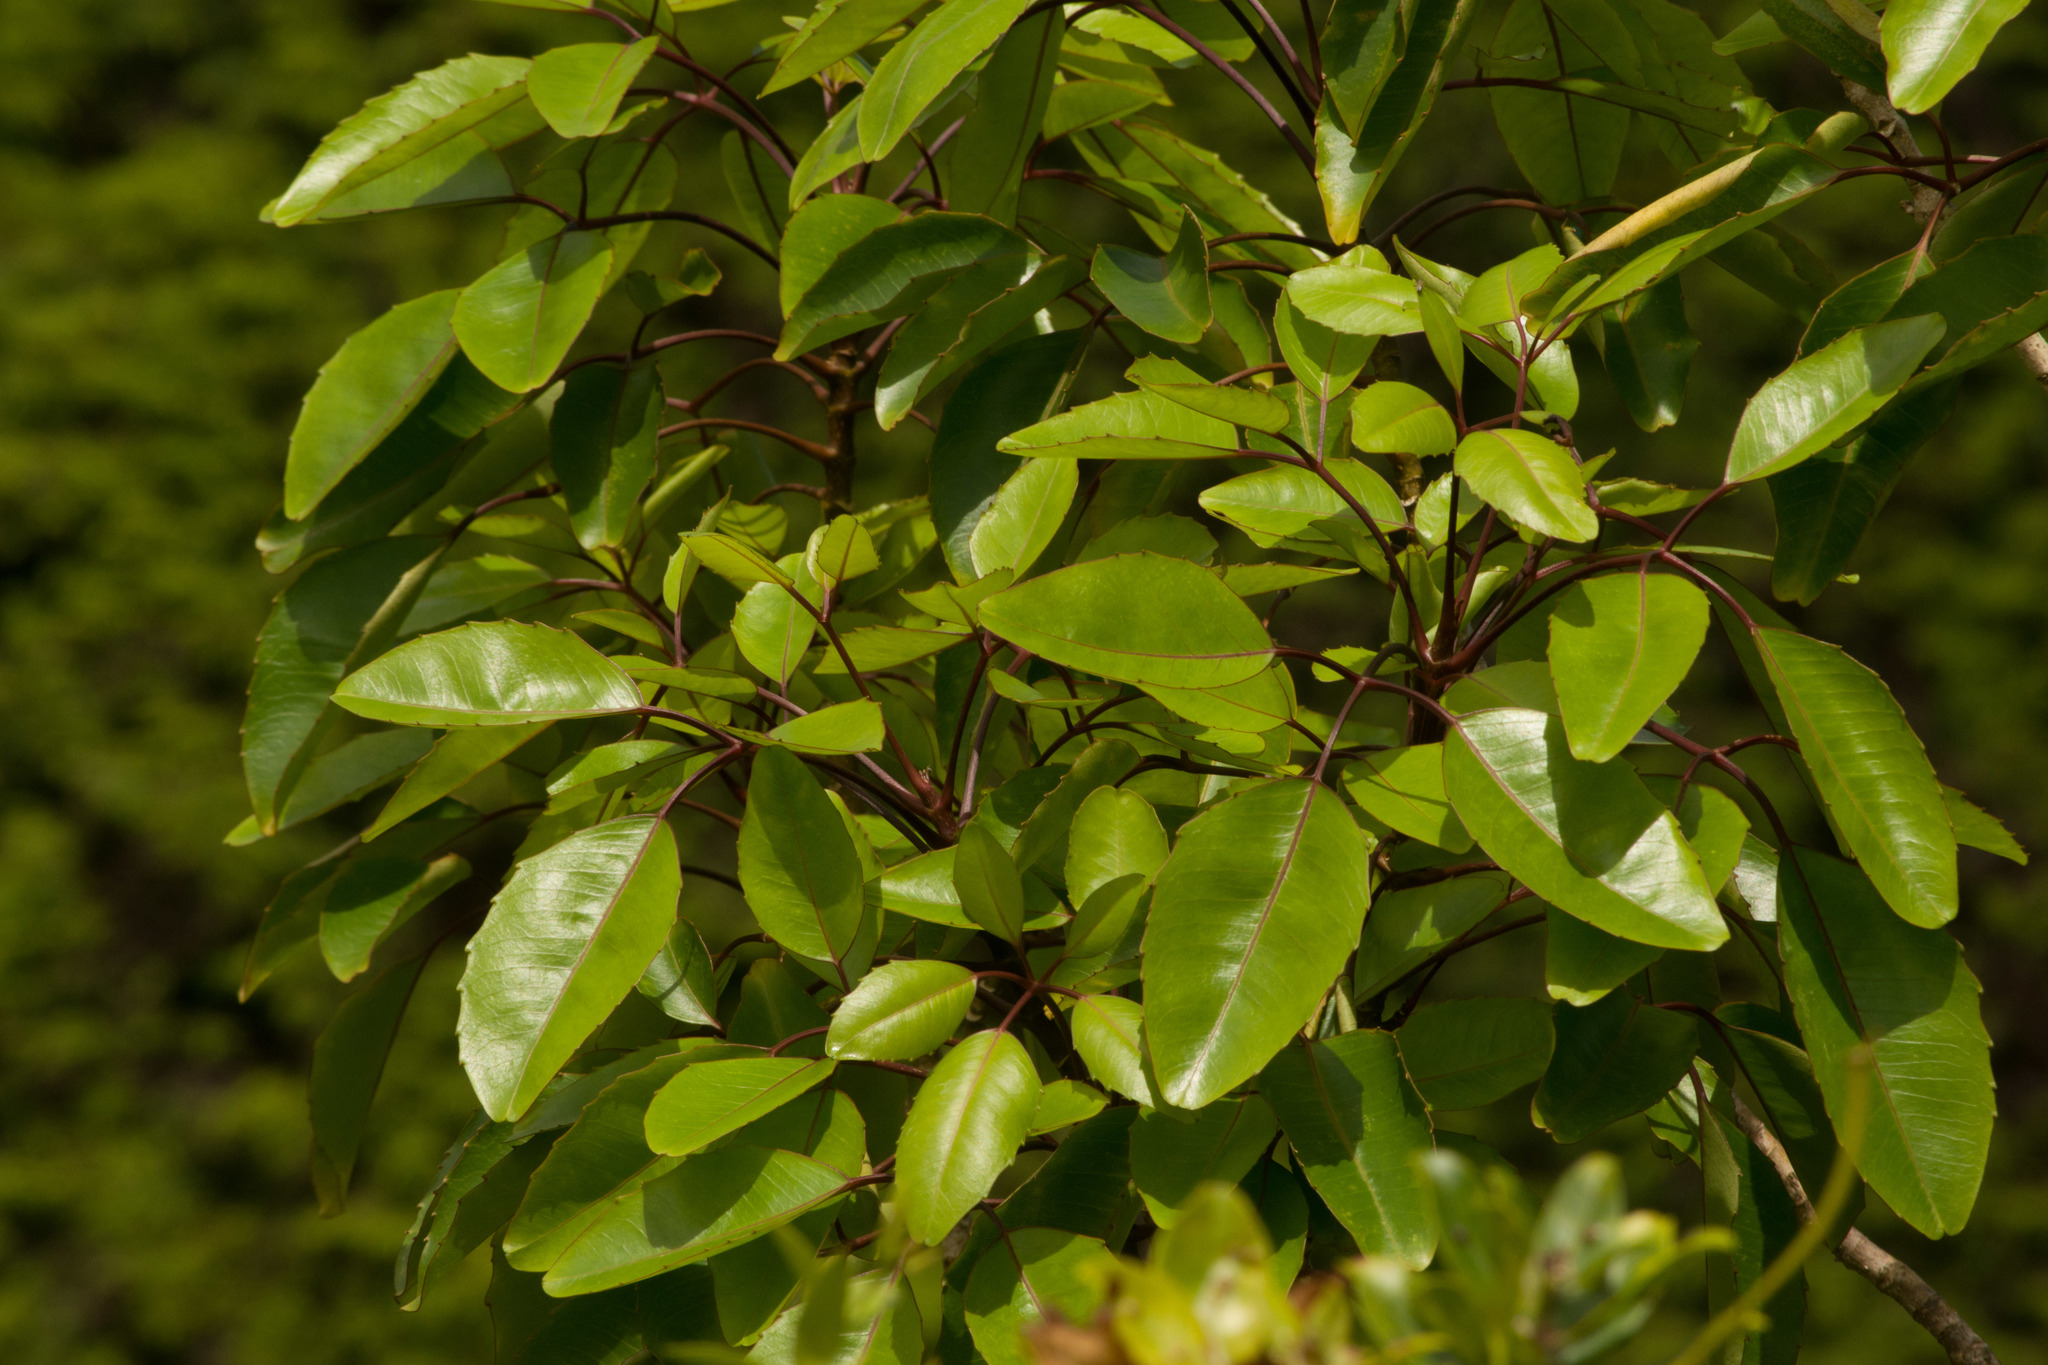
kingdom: Plantae
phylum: Tracheophyta
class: Magnoliopsida
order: Apiales
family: Araliaceae
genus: Cheirodendron
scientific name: Cheirodendron trigynum
